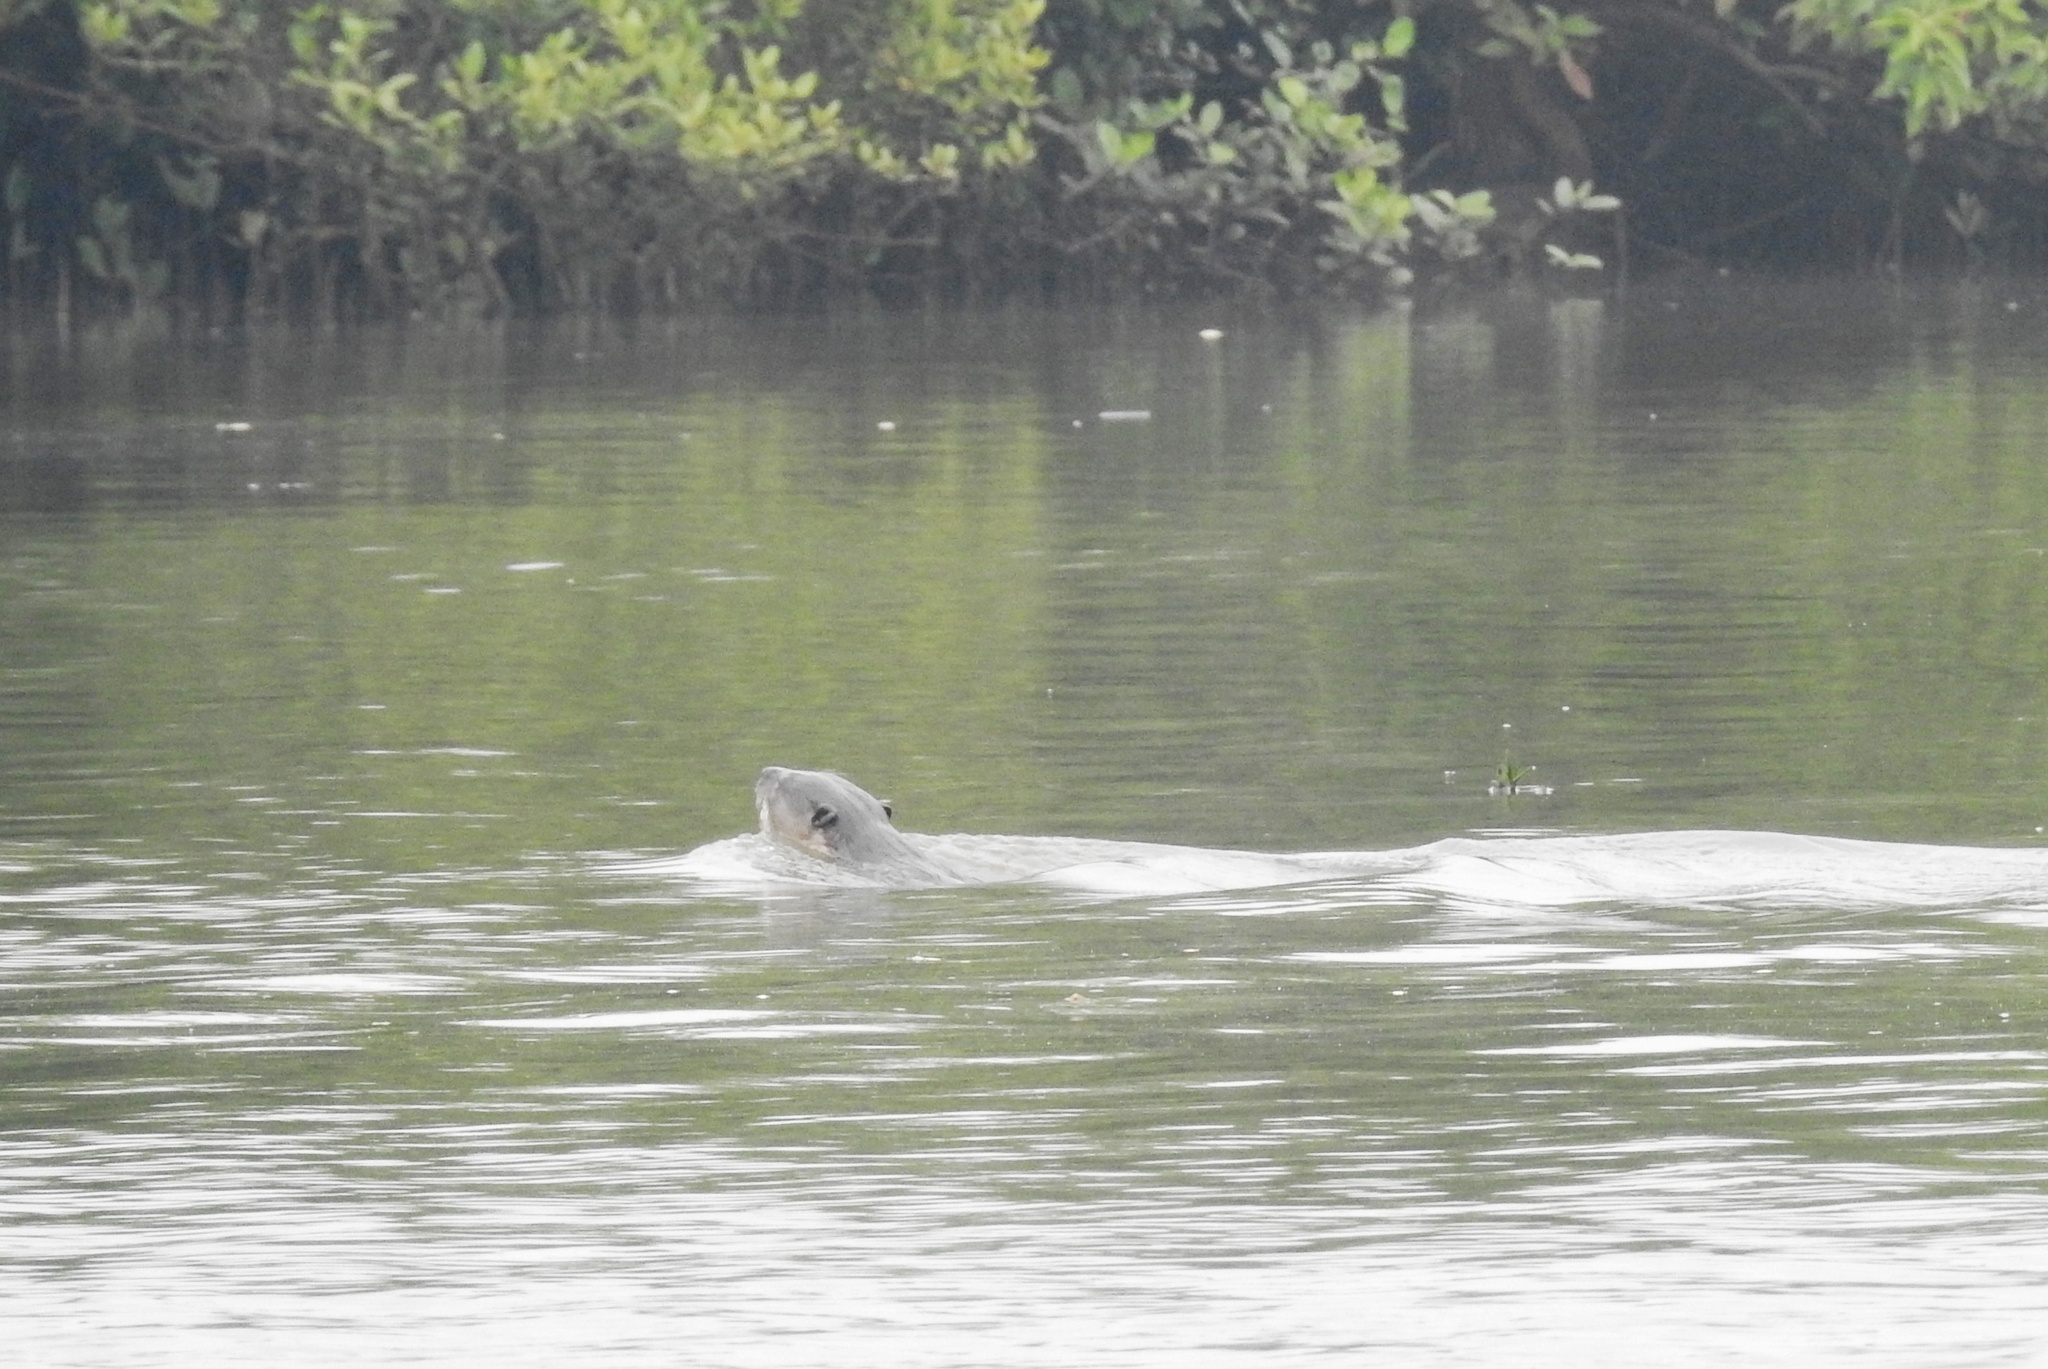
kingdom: Animalia
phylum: Chordata
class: Mammalia
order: Carnivora
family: Mustelidae
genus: Lutrogale
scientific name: Lutrogale perspicillata
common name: Smooth-coated otter
